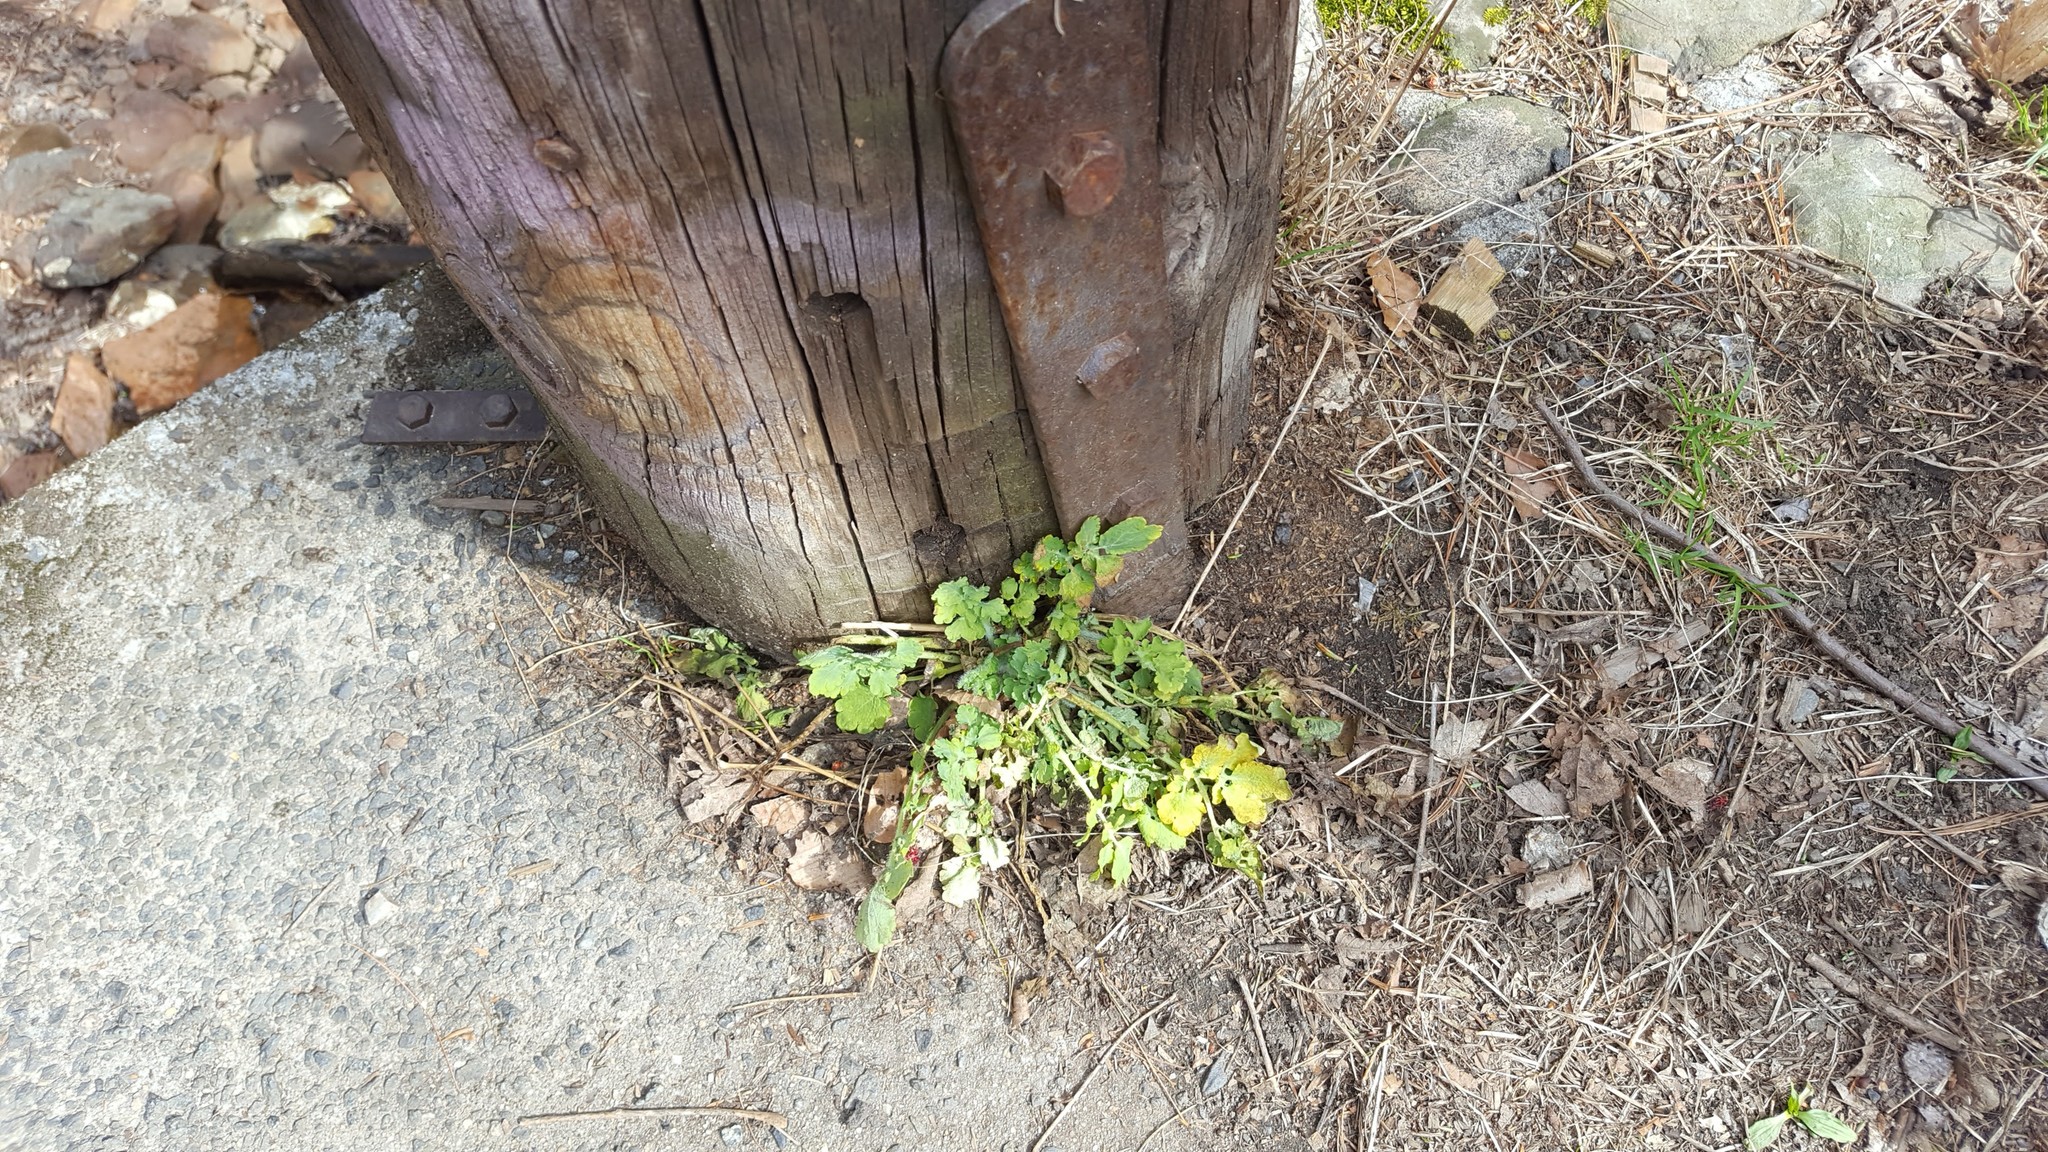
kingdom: Plantae
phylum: Tracheophyta
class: Magnoliopsida
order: Ranunculales
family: Papaveraceae
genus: Chelidonium
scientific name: Chelidonium majus
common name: Greater celandine
